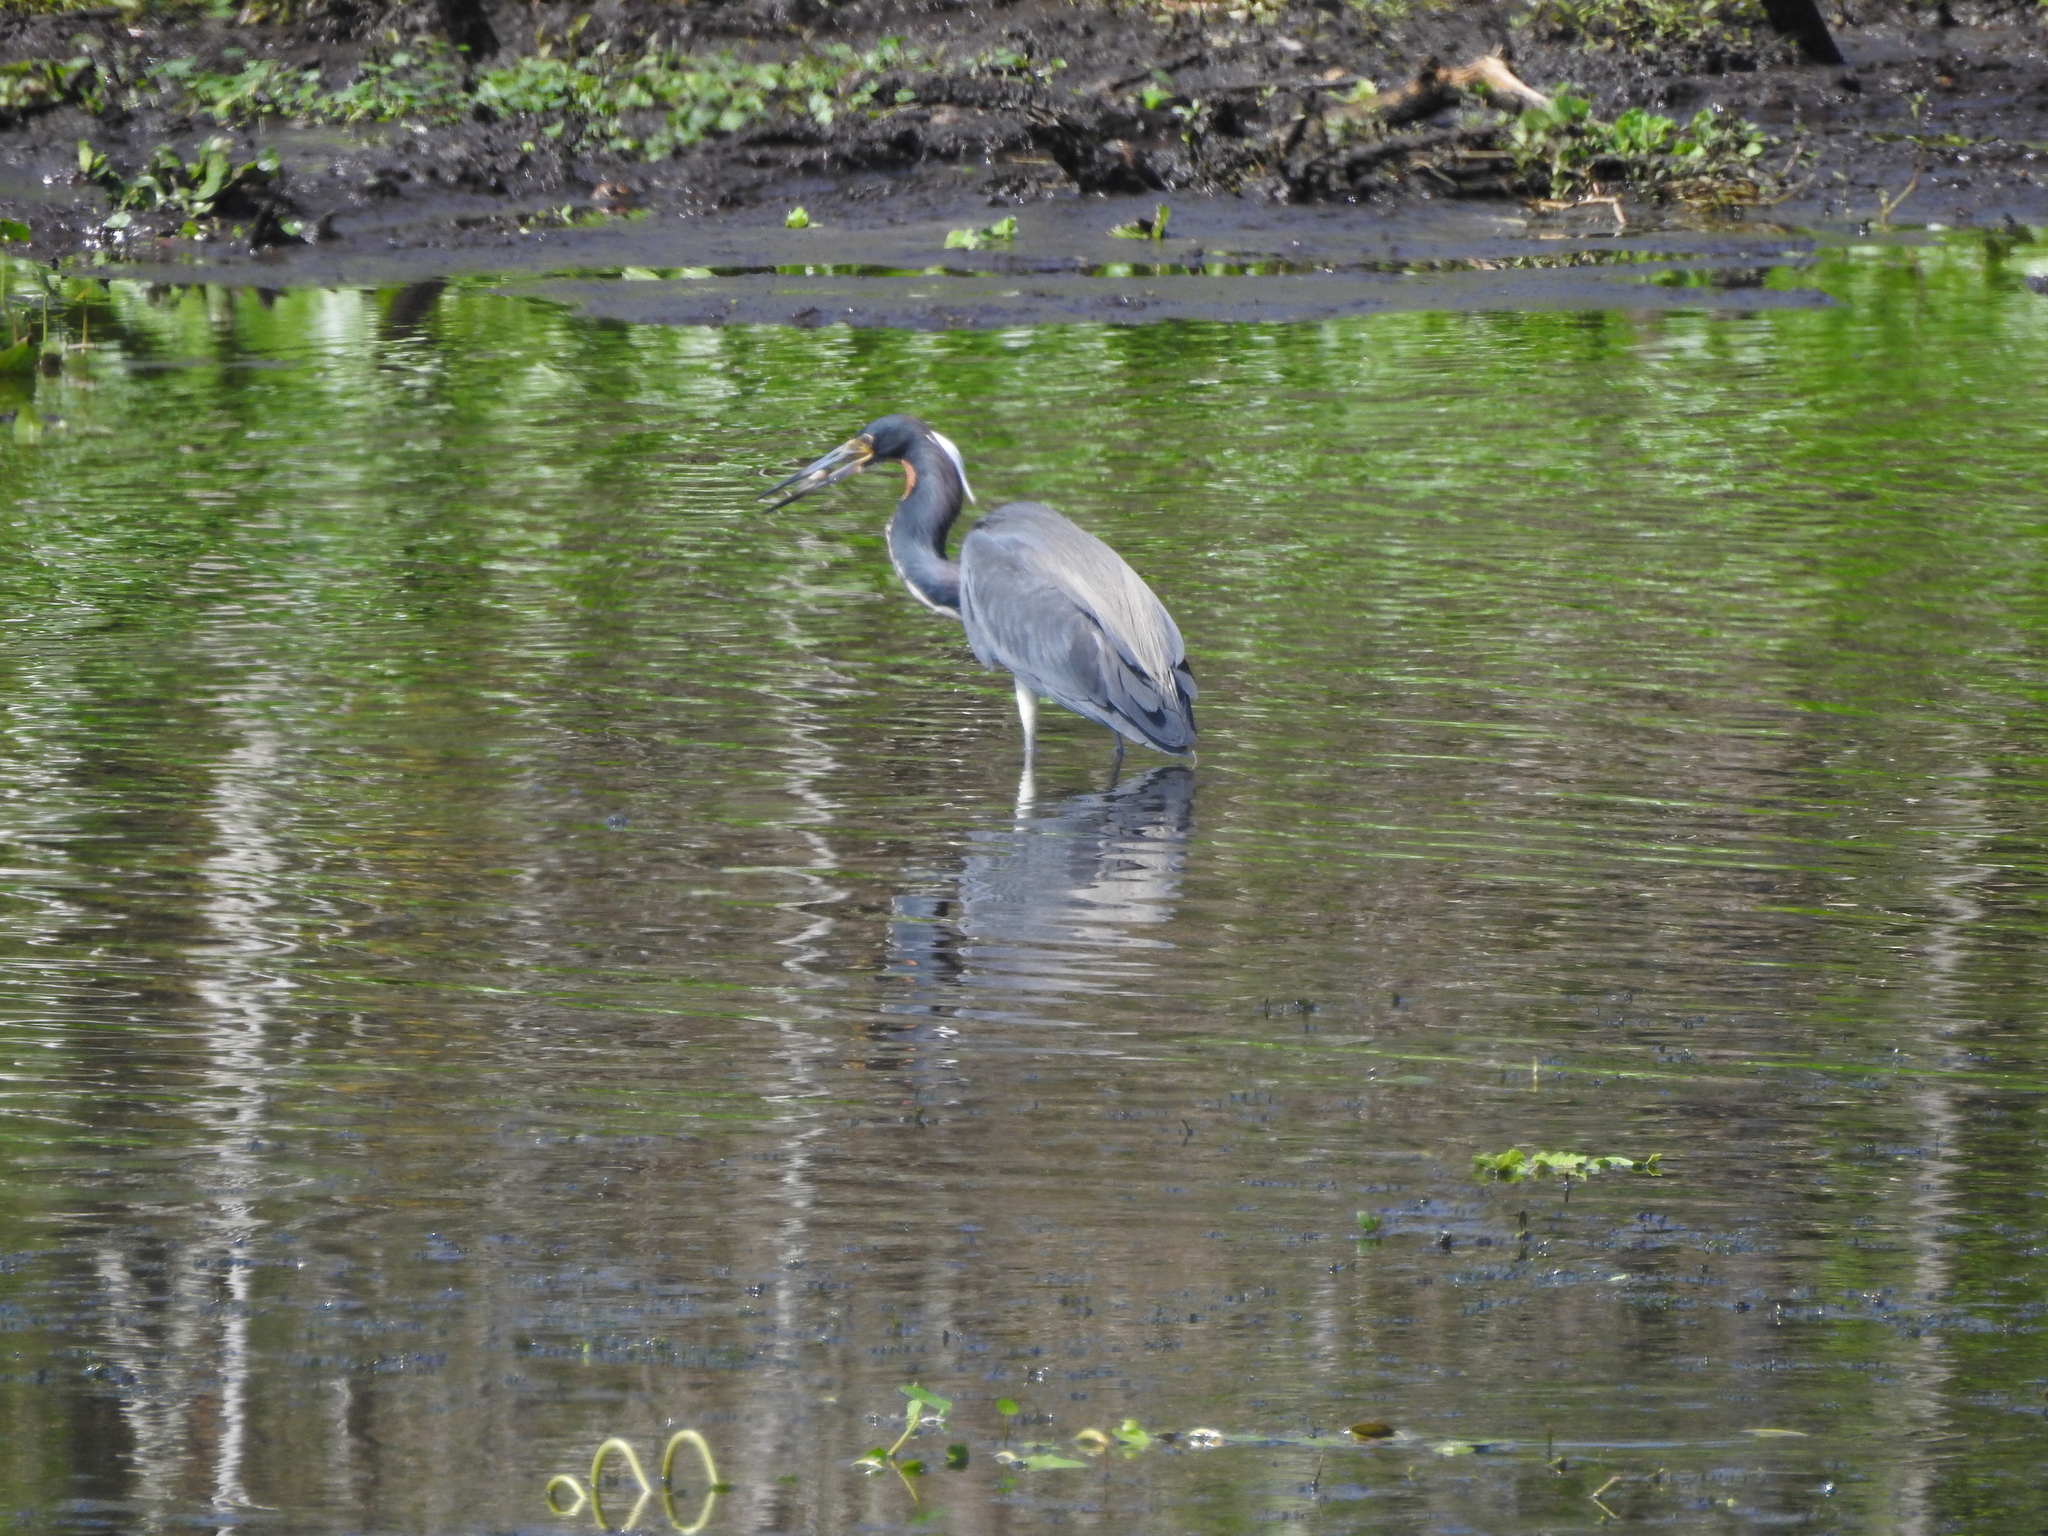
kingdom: Animalia
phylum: Chordata
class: Aves
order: Pelecaniformes
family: Ardeidae
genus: Egretta
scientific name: Egretta tricolor
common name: Tricolored heron
